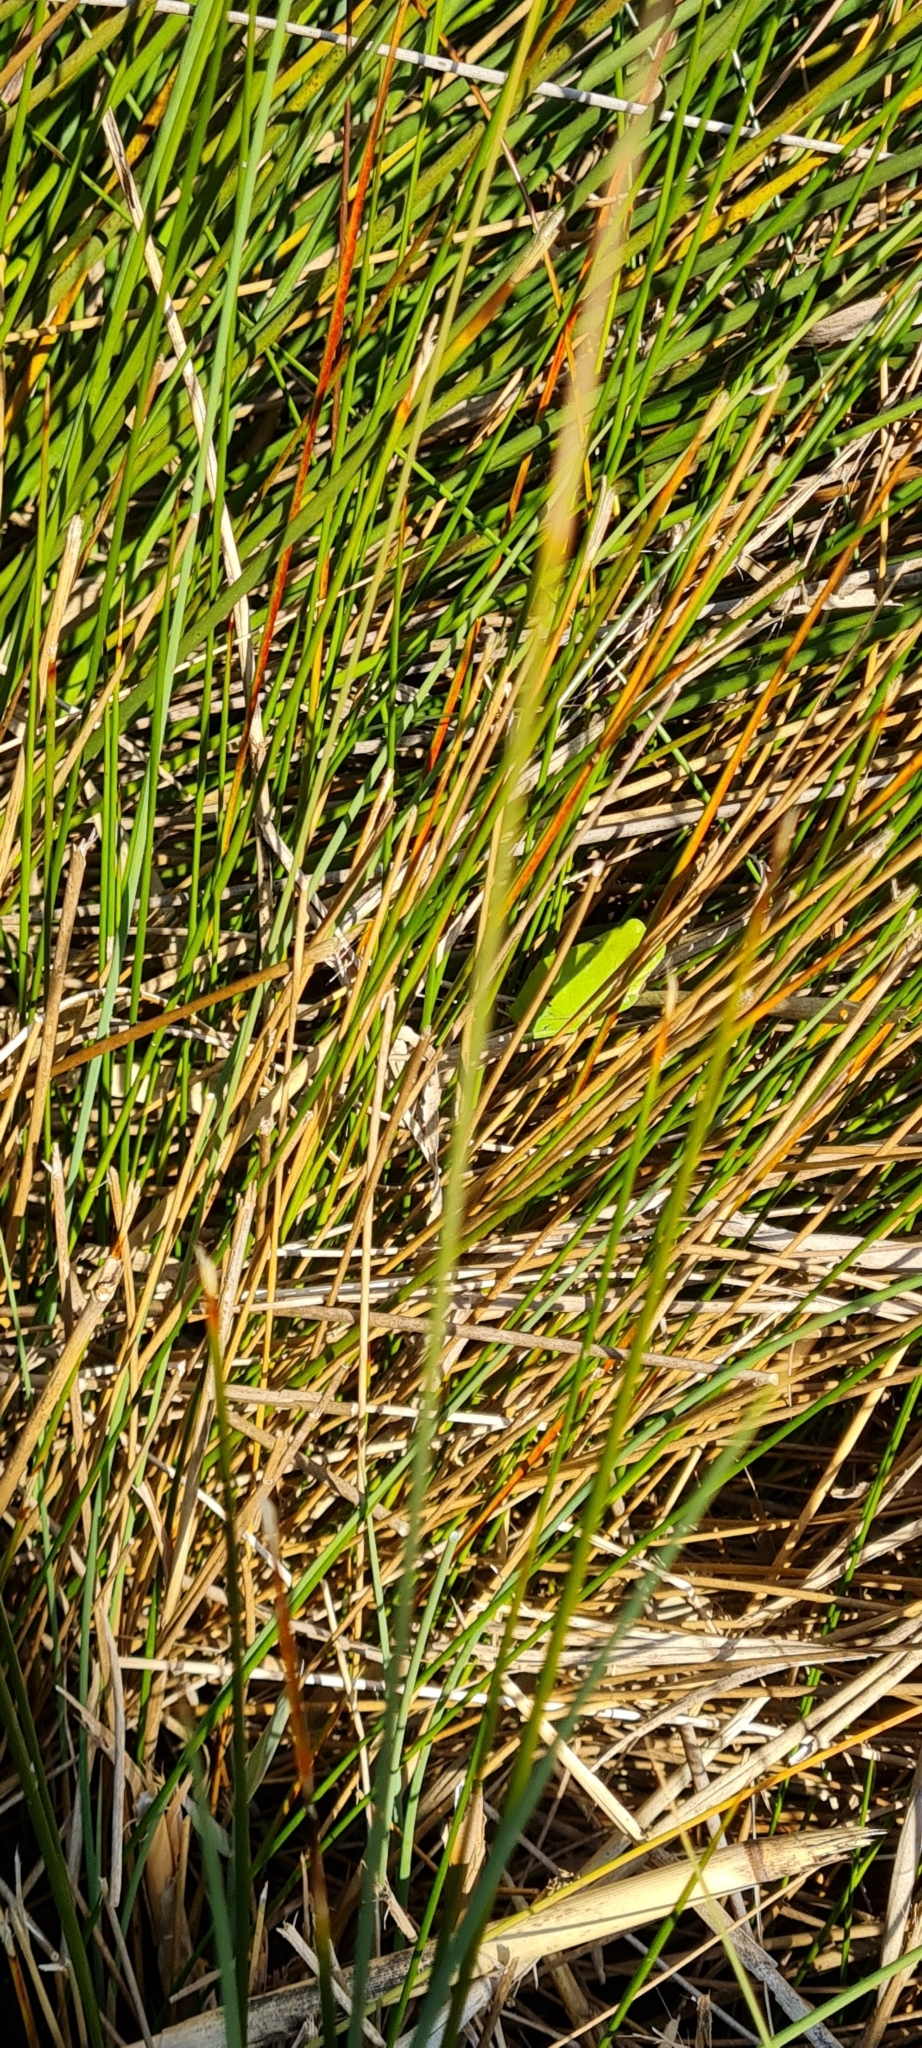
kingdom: Animalia
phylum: Chordata
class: Amphibia
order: Anura
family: Hylidae
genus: Hyla
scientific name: Hyla meridionalis
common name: Stripeless tree frog
